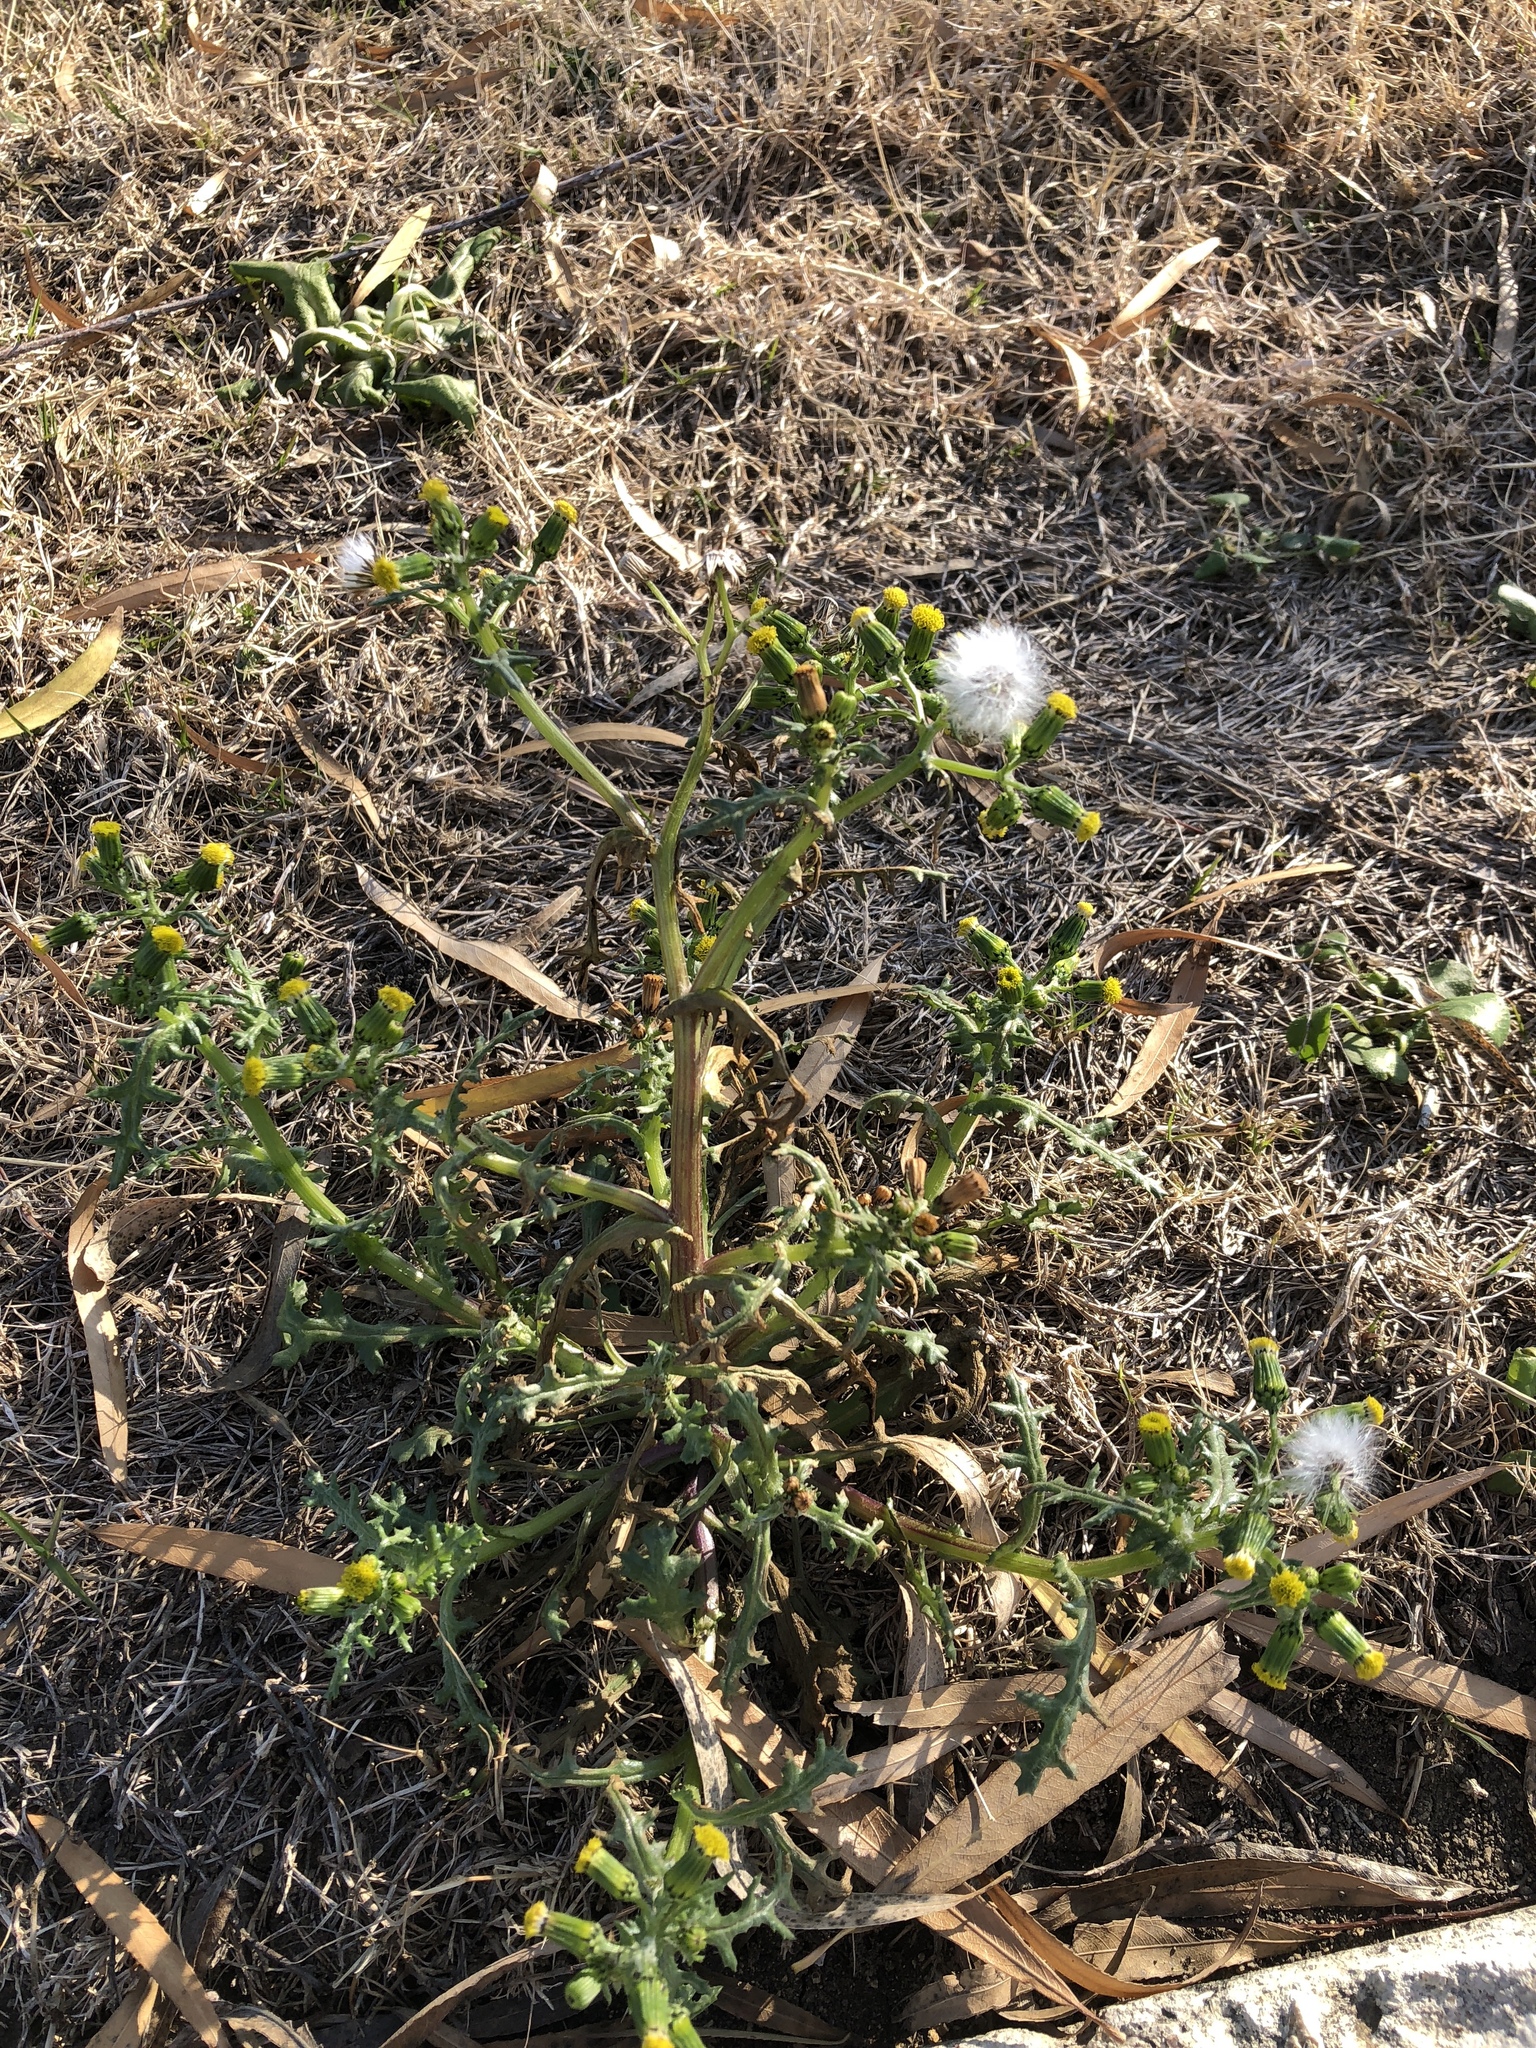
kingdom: Plantae
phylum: Tracheophyta
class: Magnoliopsida
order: Asterales
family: Asteraceae
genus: Senecio
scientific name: Senecio vulgaris
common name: Old-man-in-the-spring
